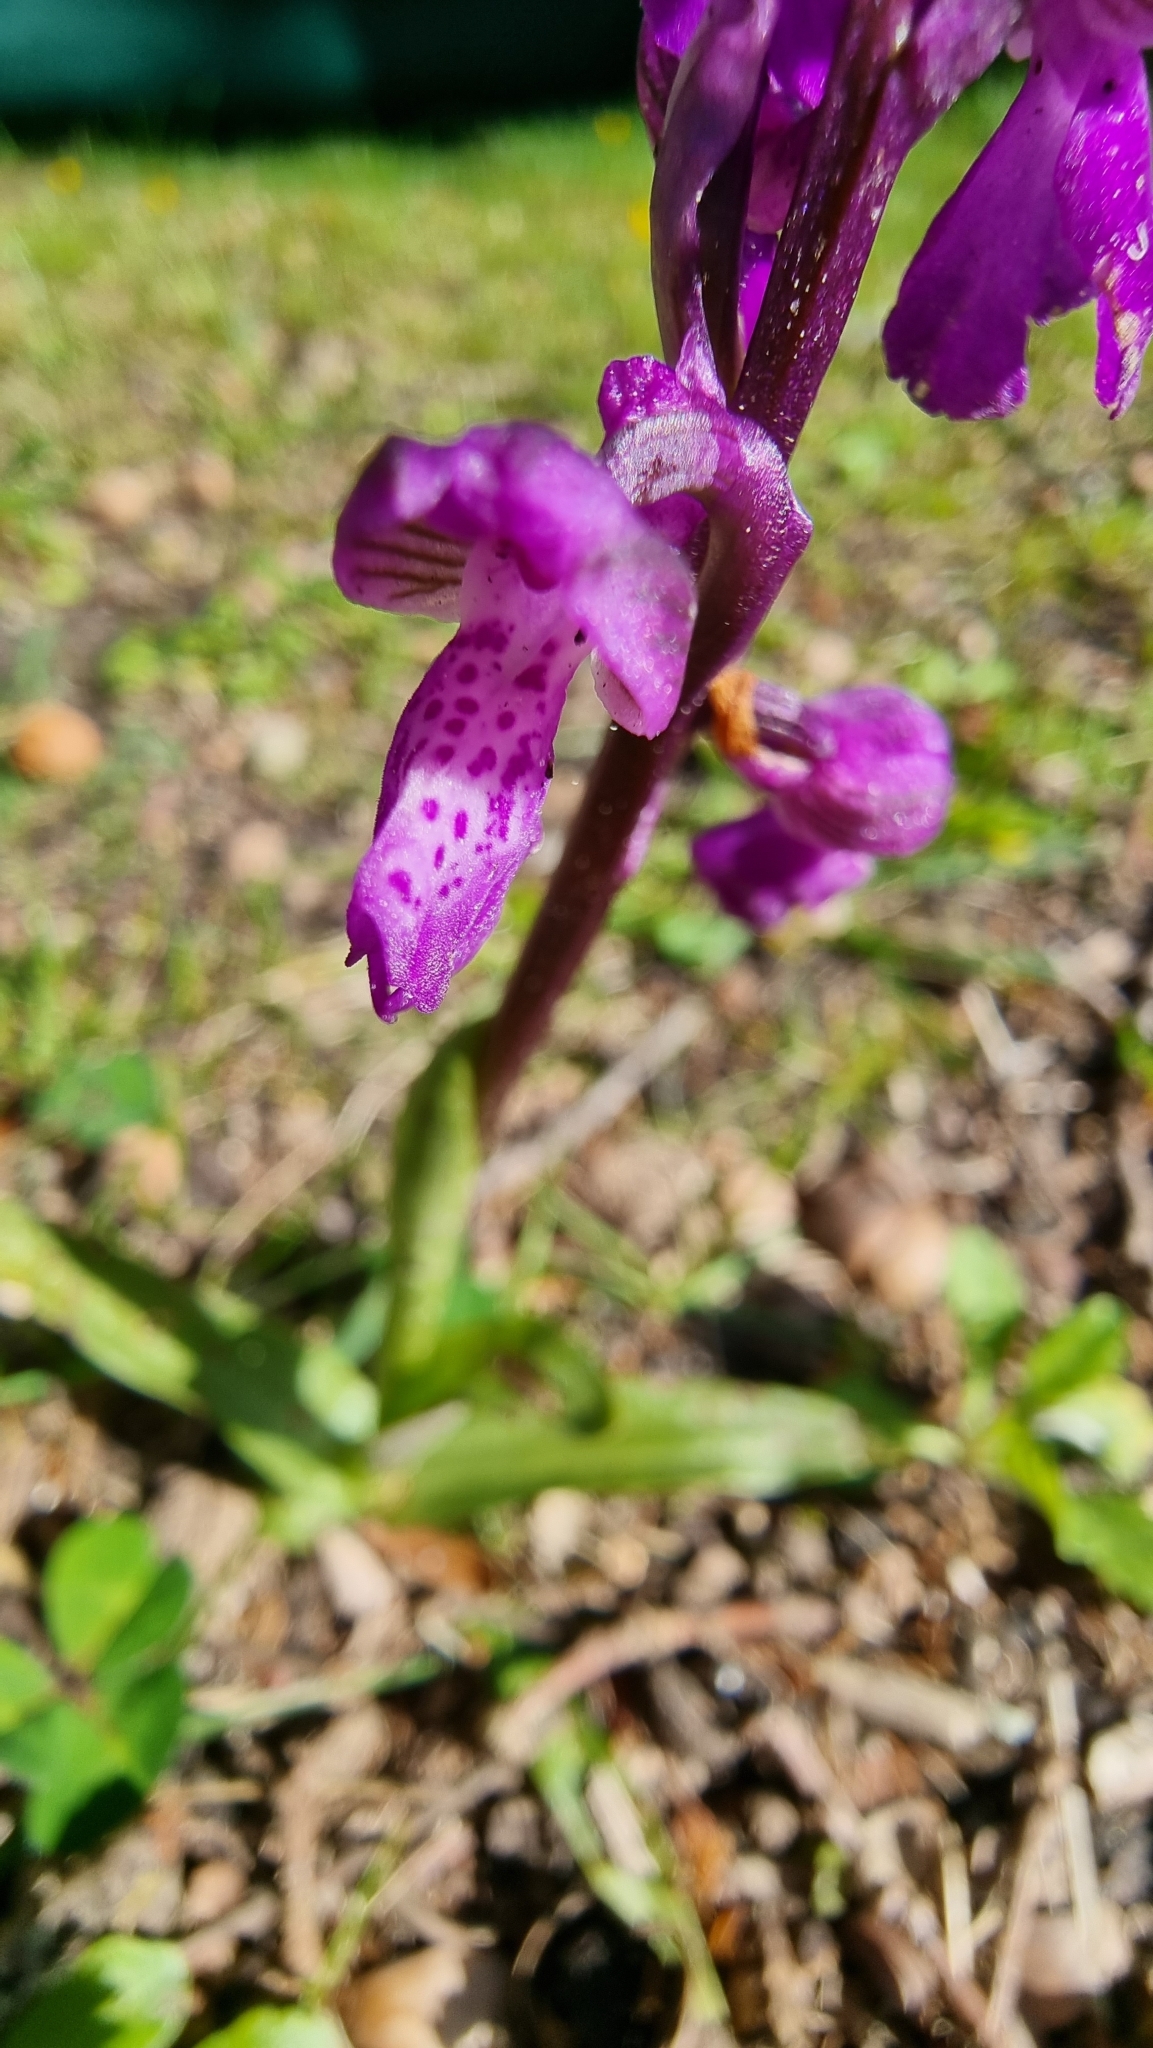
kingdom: Plantae
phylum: Tracheophyta
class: Liliopsida
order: Asparagales
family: Orchidaceae
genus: Anacamptis
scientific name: Anacamptis morio
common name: Green-winged orchid
